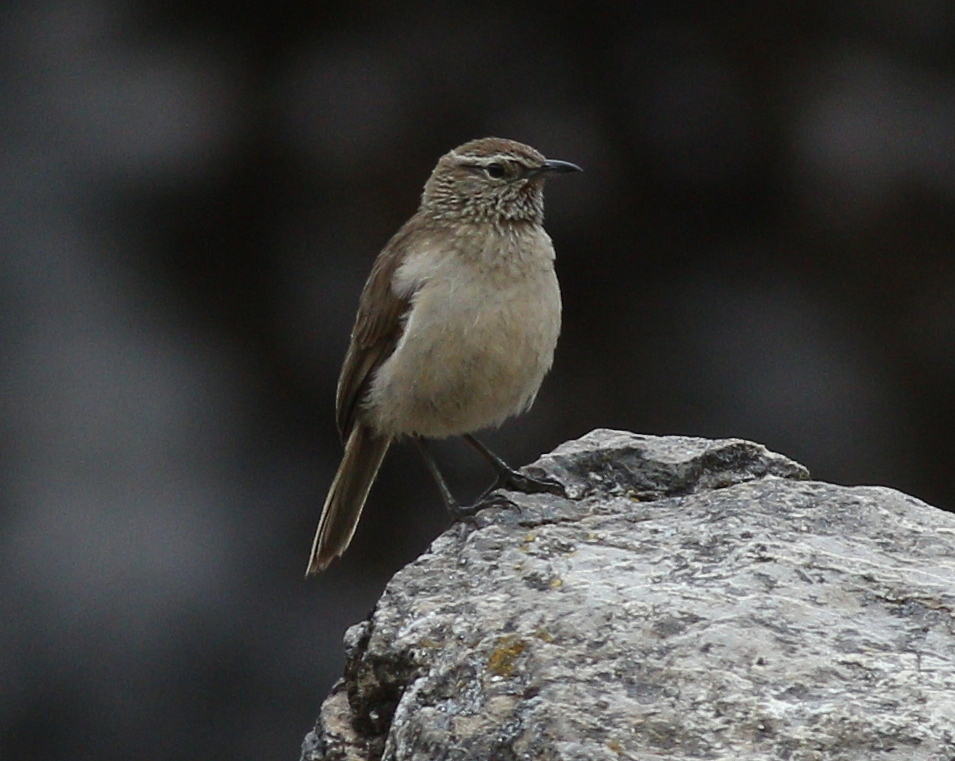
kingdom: Animalia
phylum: Chordata
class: Aves
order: Passeriformes
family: Furnariidae
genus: Asthenes
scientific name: Asthenes humilis
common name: Streak-throated canastero
